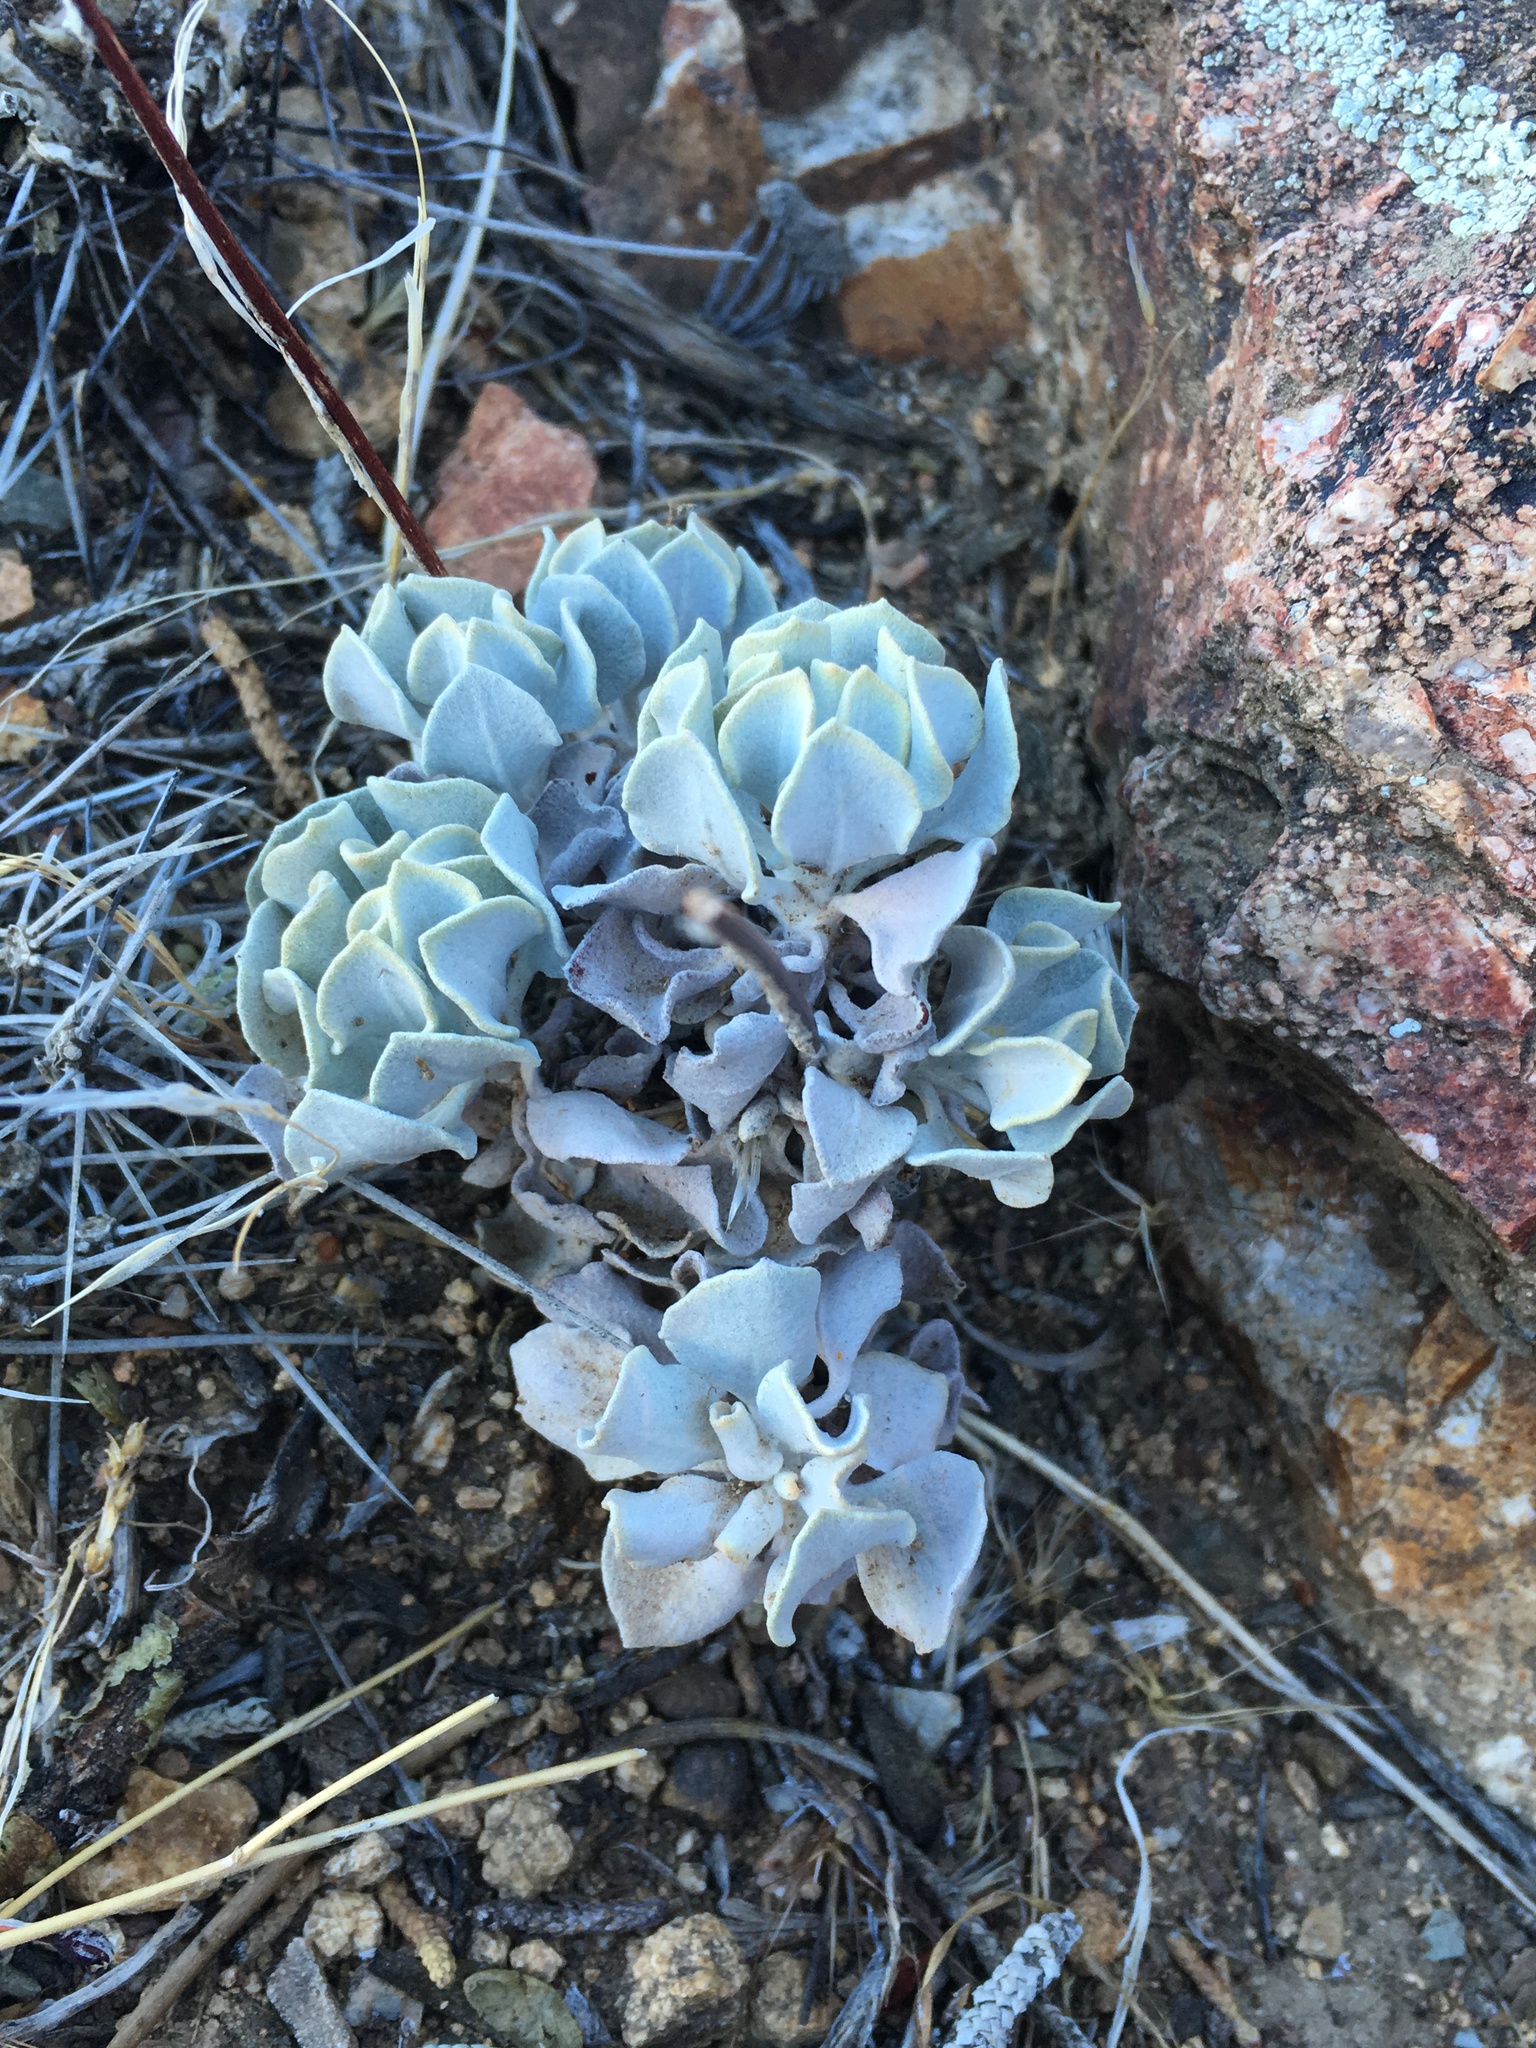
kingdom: Plantae
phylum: Tracheophyta
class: Magnoliopsida
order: Caryophyllales
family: Polygonaceae
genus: Eriogonum
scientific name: Eriogonum saxatile
